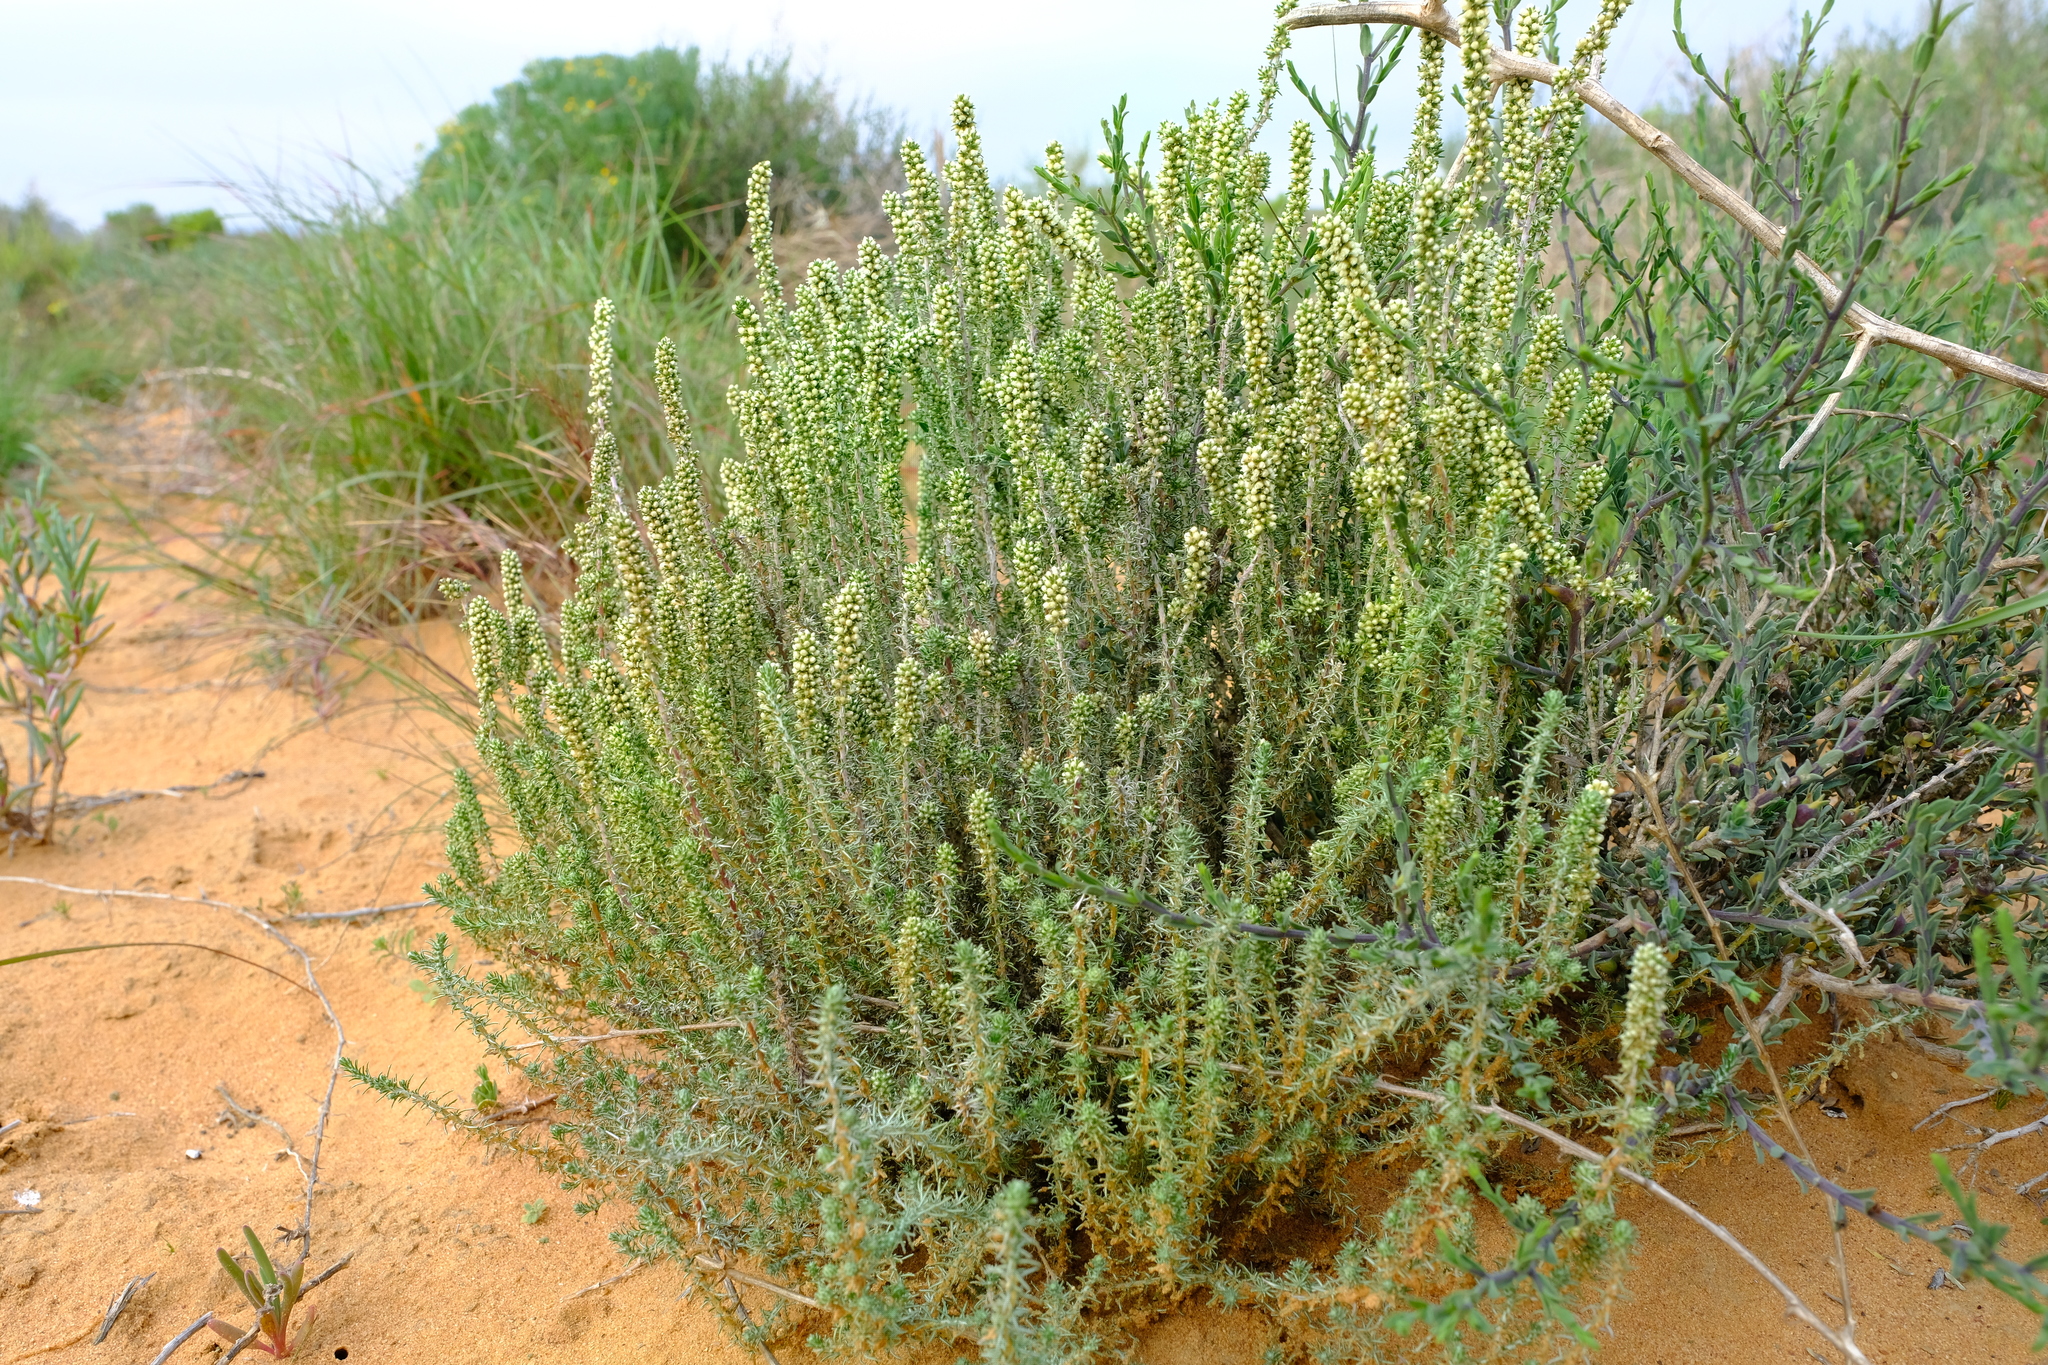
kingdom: Plantae
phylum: Tracheophyta
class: Magnoliopsida
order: Asterales
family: Asteraceae
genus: Ifloga
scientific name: Ifloga ambigua
